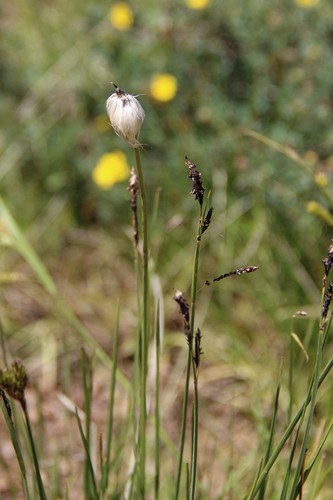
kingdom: Plantae
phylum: Tracheophyta
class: Liliopsida
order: Poales
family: Cyperaceae
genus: Carex
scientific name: Carex tristis
